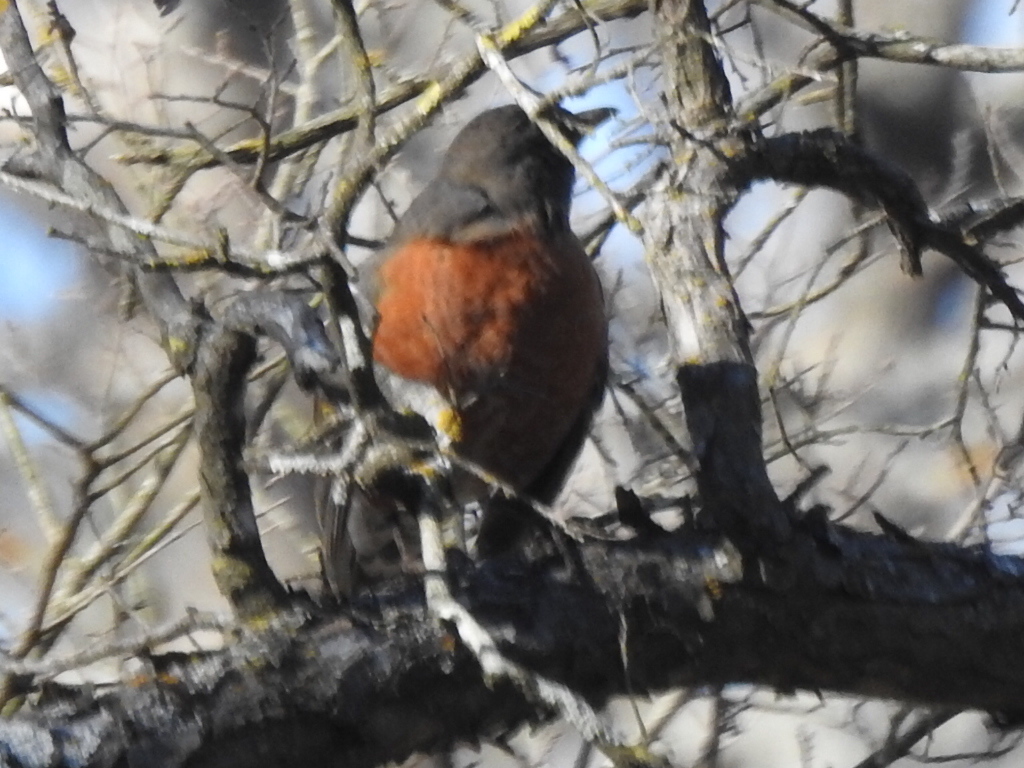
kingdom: Animalia
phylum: Chordata
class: Aves
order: Passeriformes
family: Turdidae
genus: Turdus
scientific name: Turdus migratorius
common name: American robin
